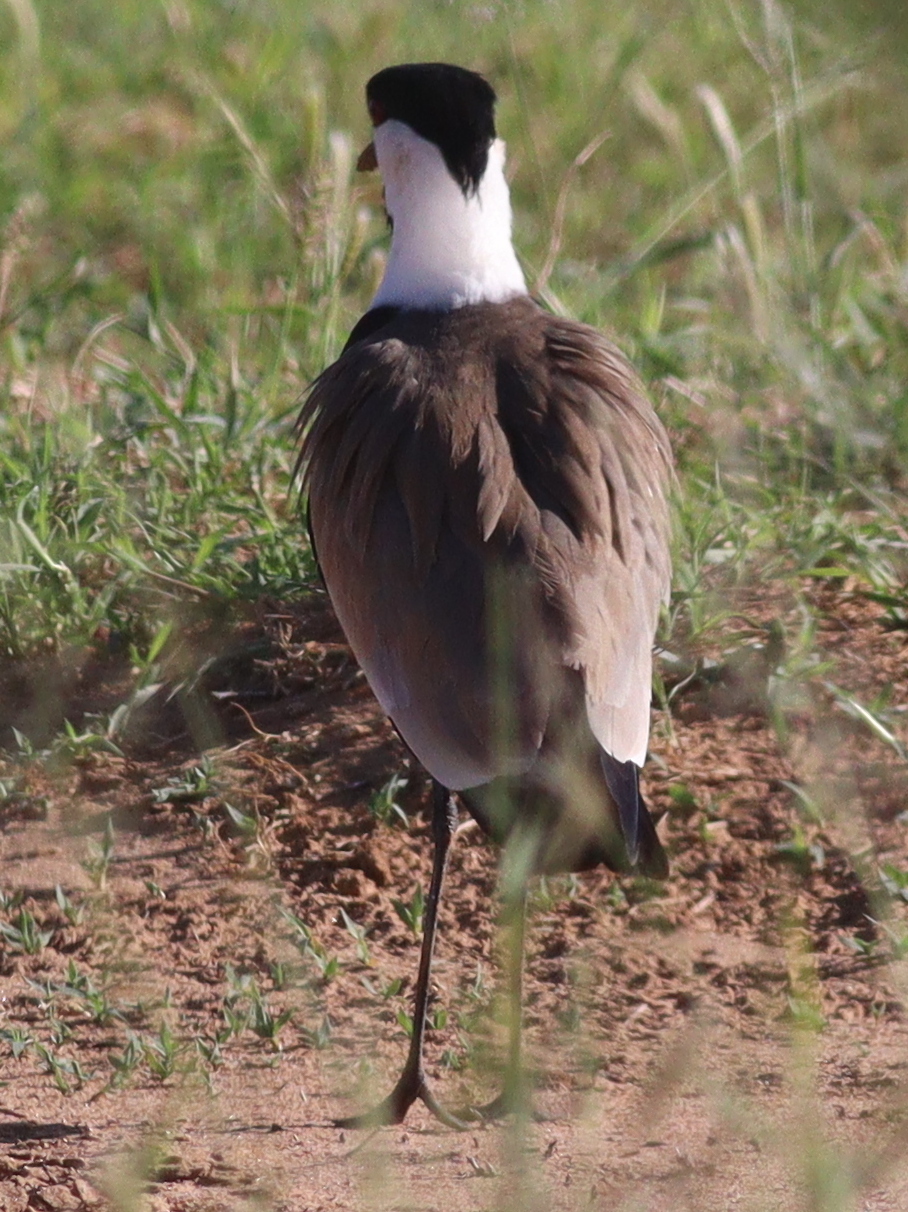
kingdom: Animalia
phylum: Chordata
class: Aves
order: Charadriiformes
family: Charadriidae
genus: Vanellus
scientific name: Vanellus spinosus
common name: Spur-winged lapwing
